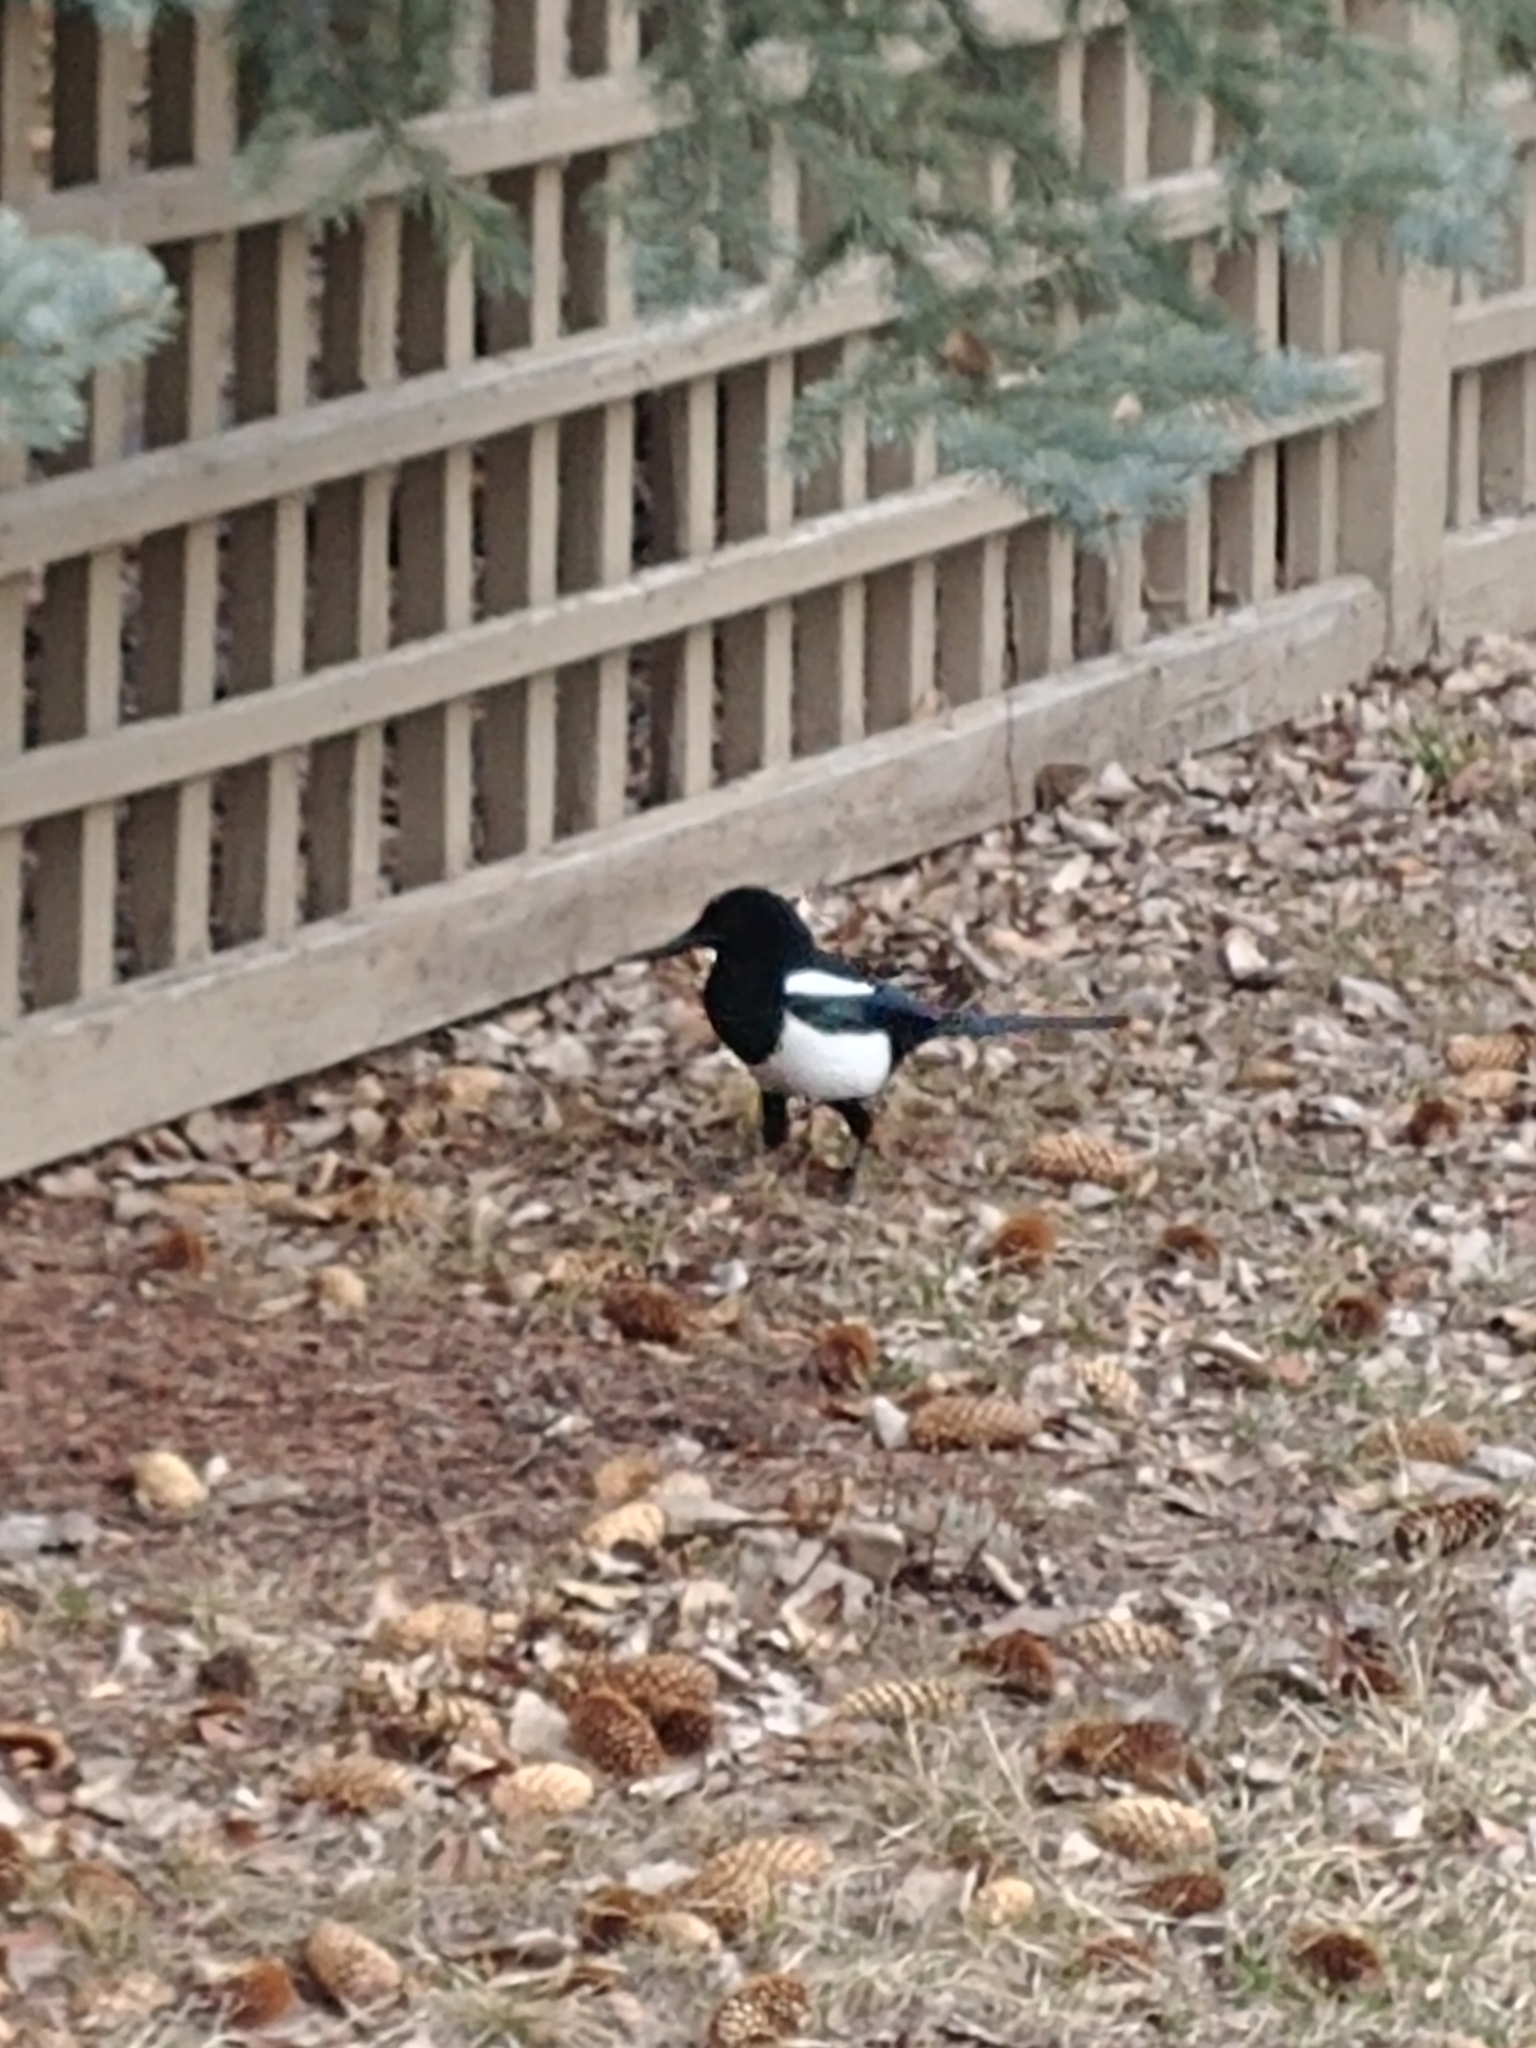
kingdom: Animalia
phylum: Chordata
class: Aves
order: Passeriformes
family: Corvidae
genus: Pica
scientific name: Pica hudsonia
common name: Black-billed magpie
